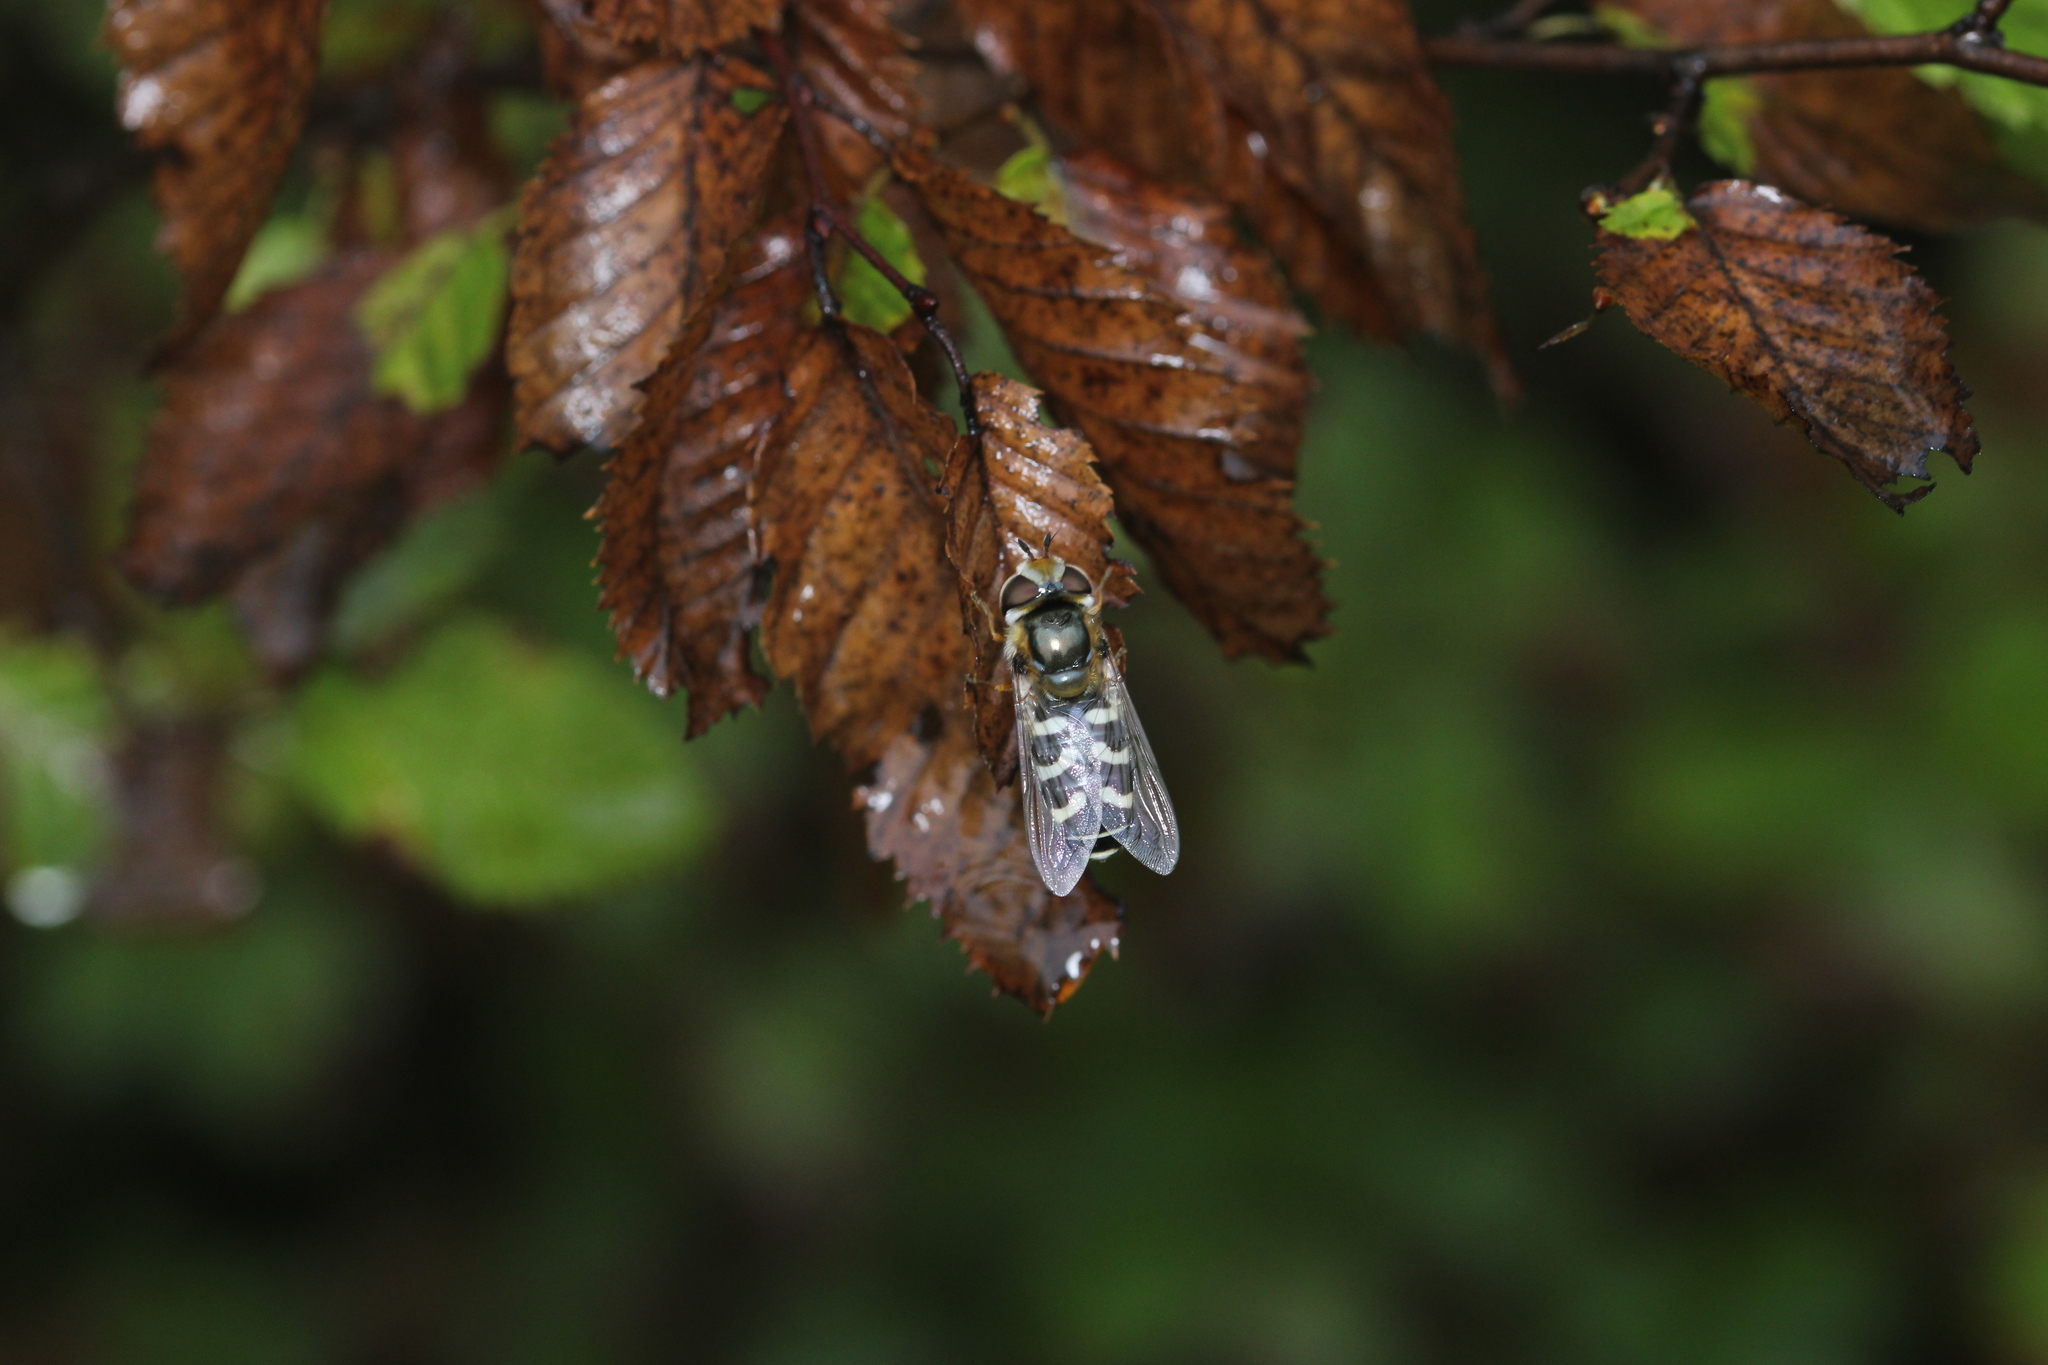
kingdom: Animalia
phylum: Arthropoda
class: Insecta
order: Diptera
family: Syrphidae
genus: Scaeva
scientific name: Scaeva pyrastri
